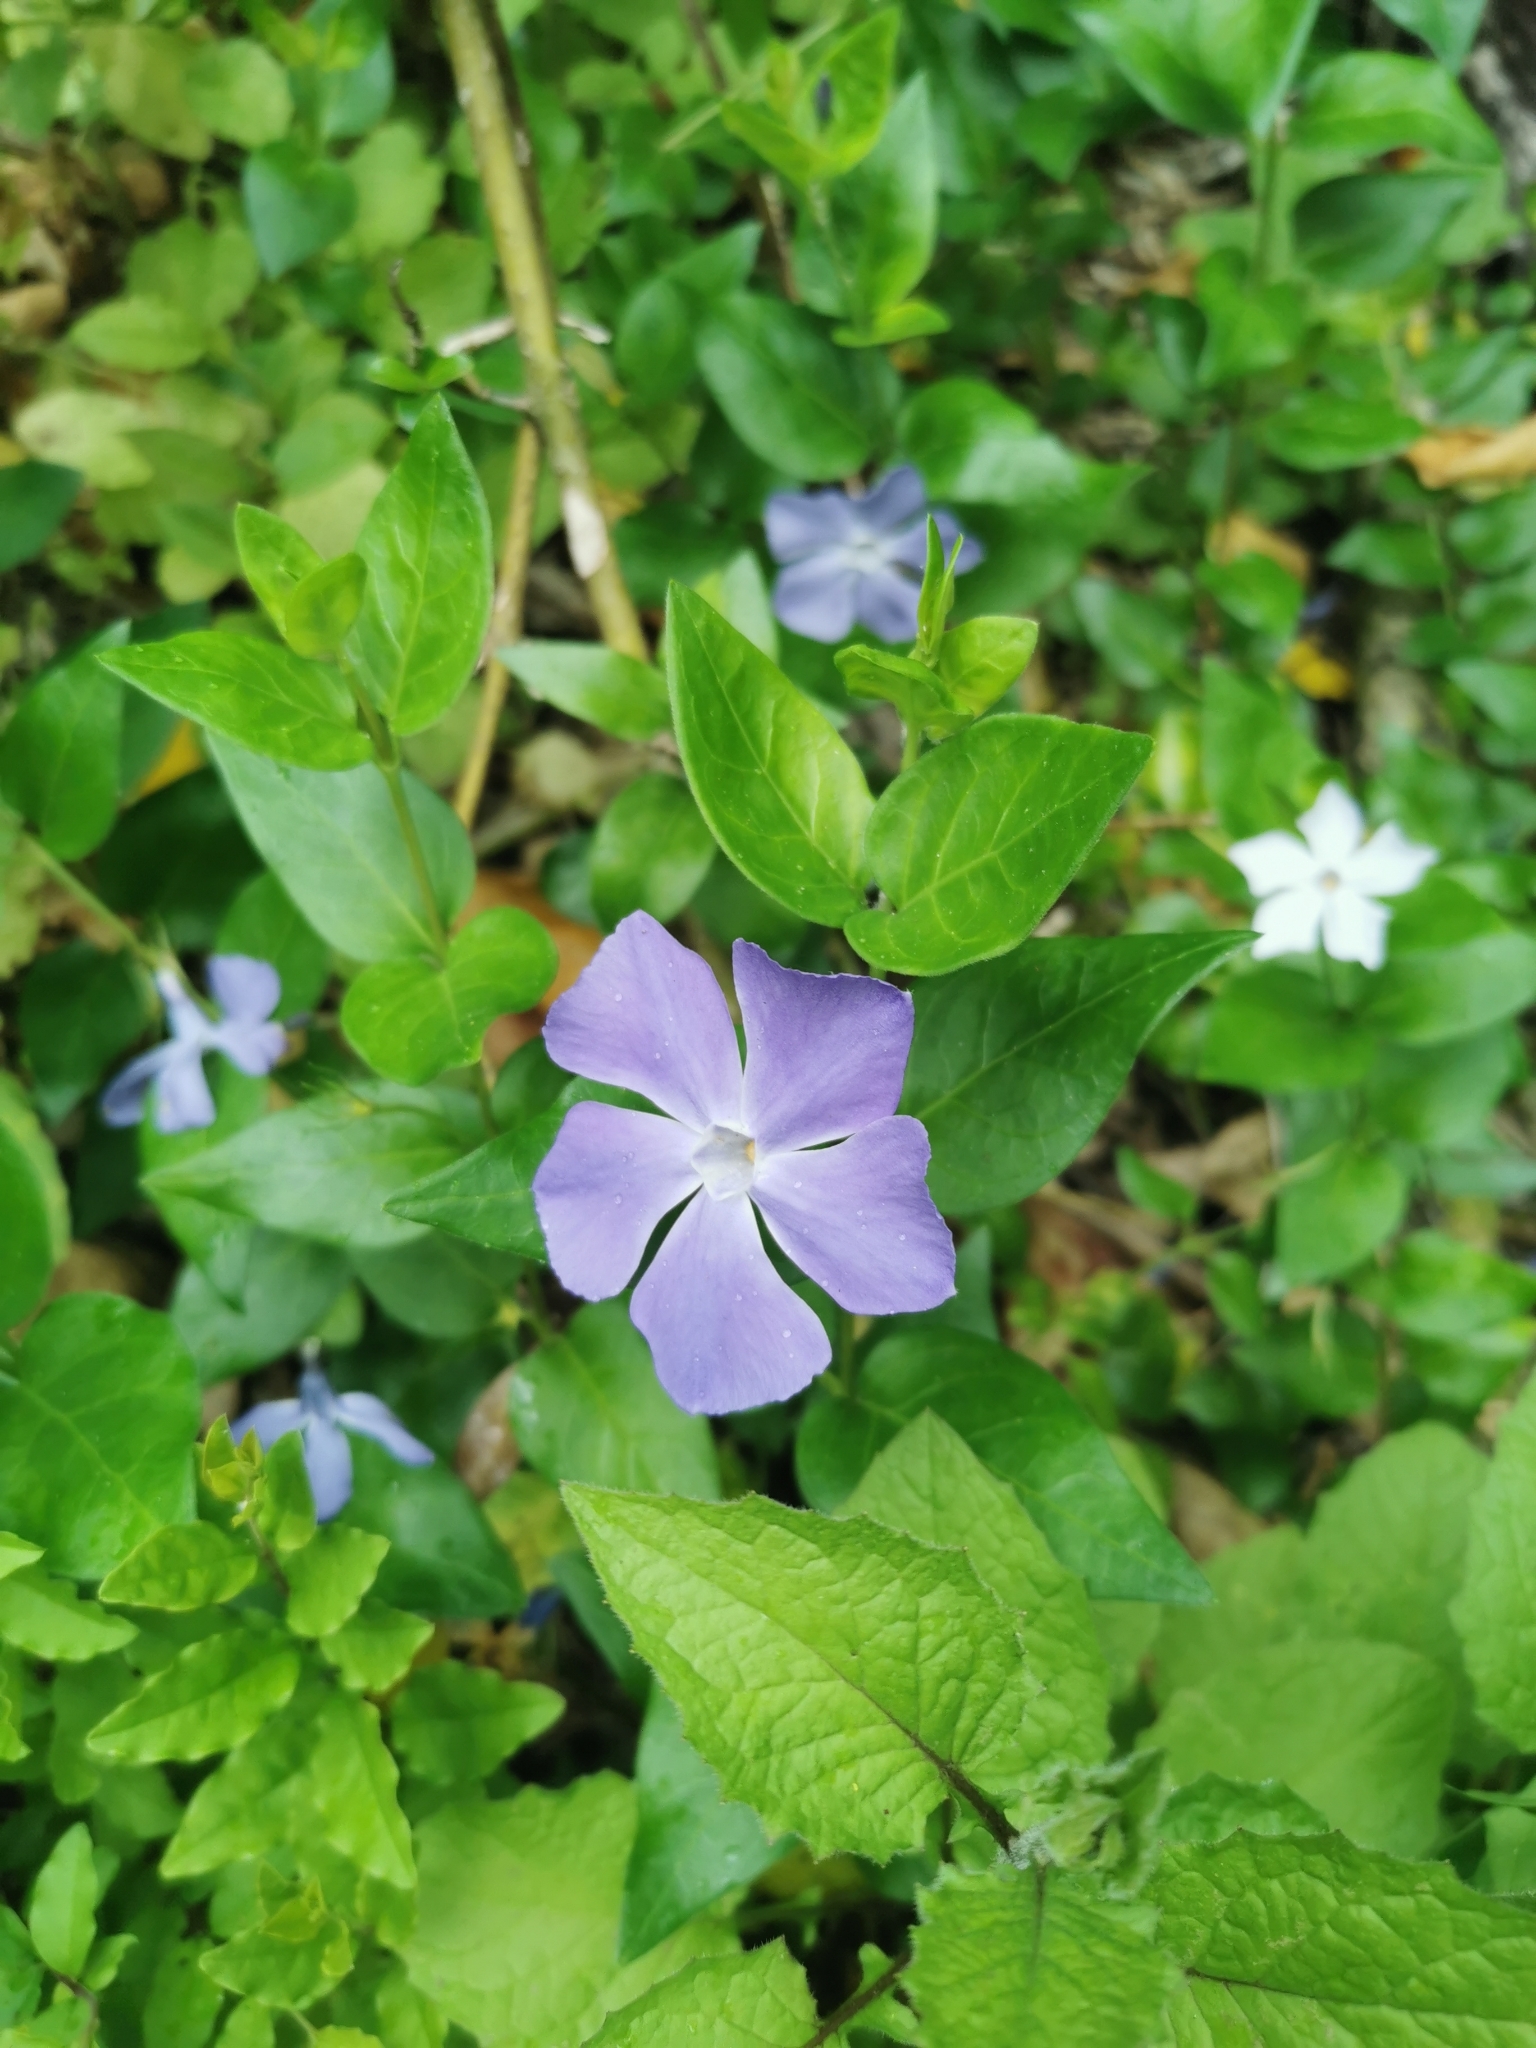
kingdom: Plantae
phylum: Tracheophyta
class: Magnoliopsida
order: Gentianales
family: Apocynaceae
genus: Vinca
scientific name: Vinca major
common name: Greater periwinkle
